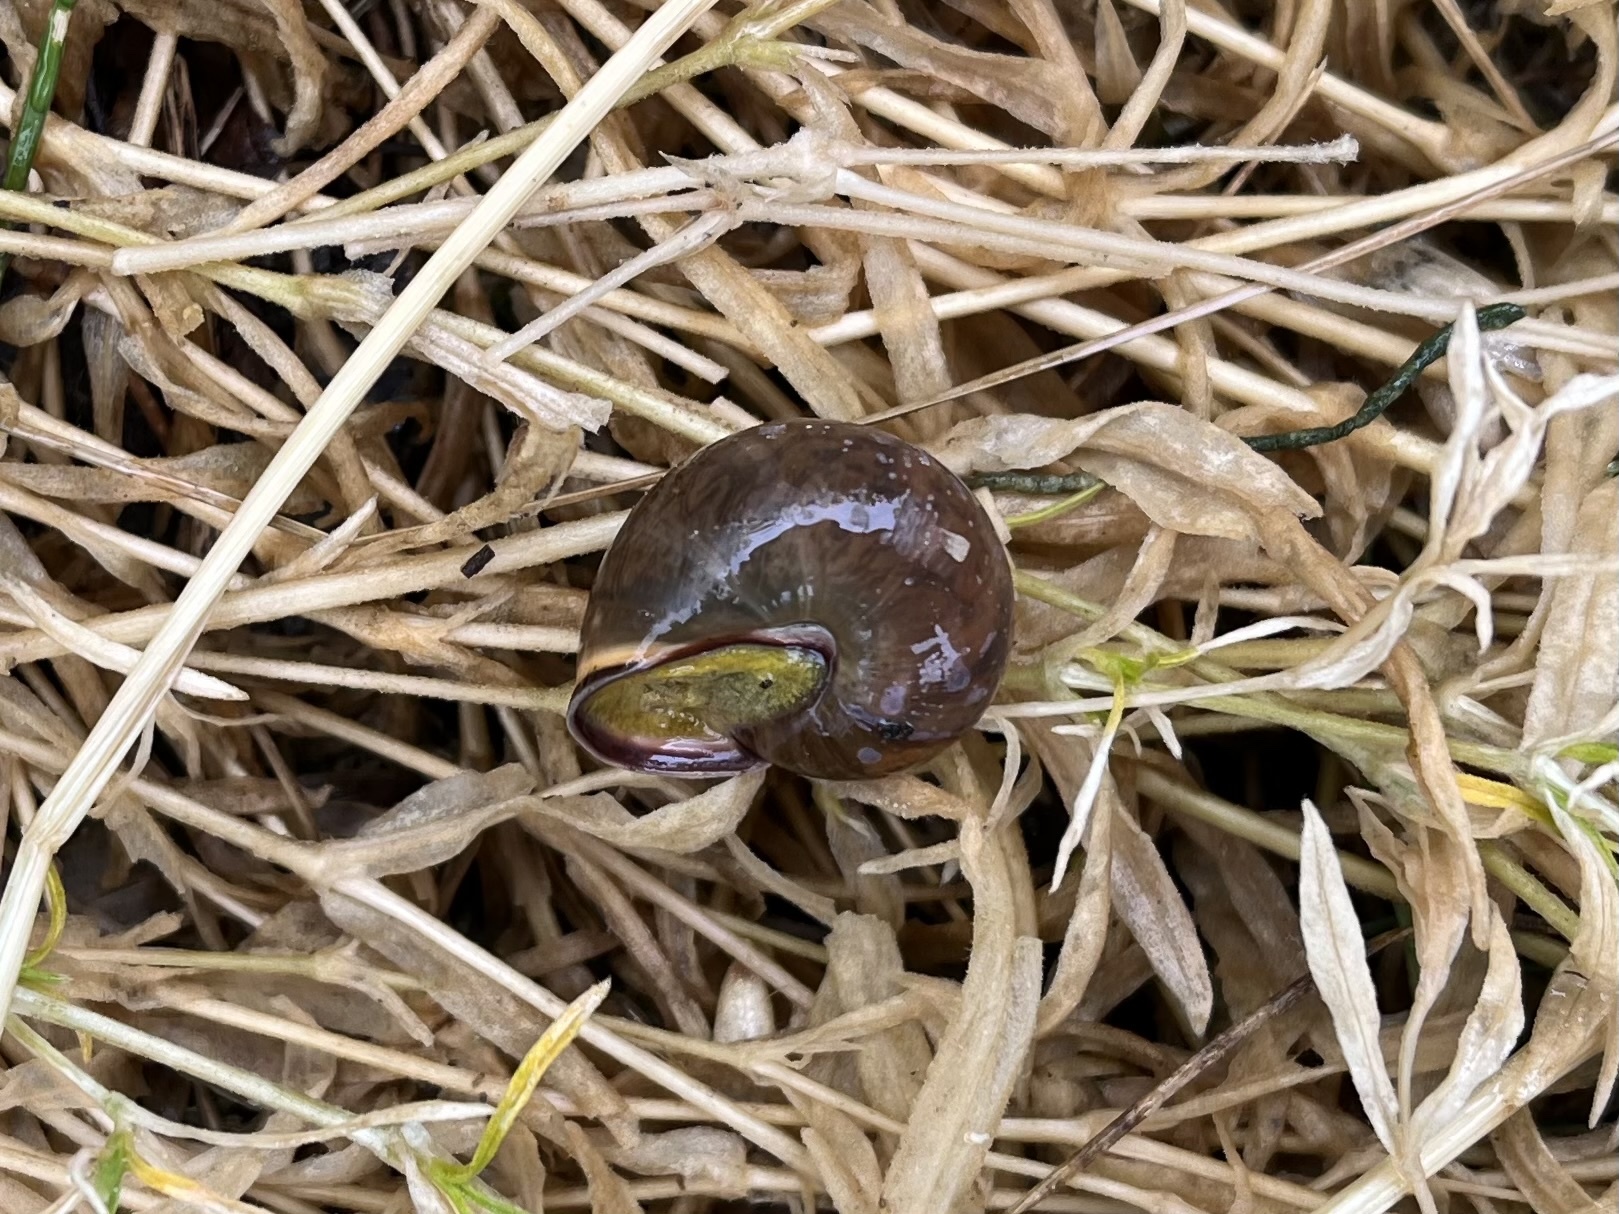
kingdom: Animalia
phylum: Mollusca
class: Gastropoda
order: Stylommatophora
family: Helicidae
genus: Cepaea
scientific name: Cepaea nemoralis
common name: Grovesnail
